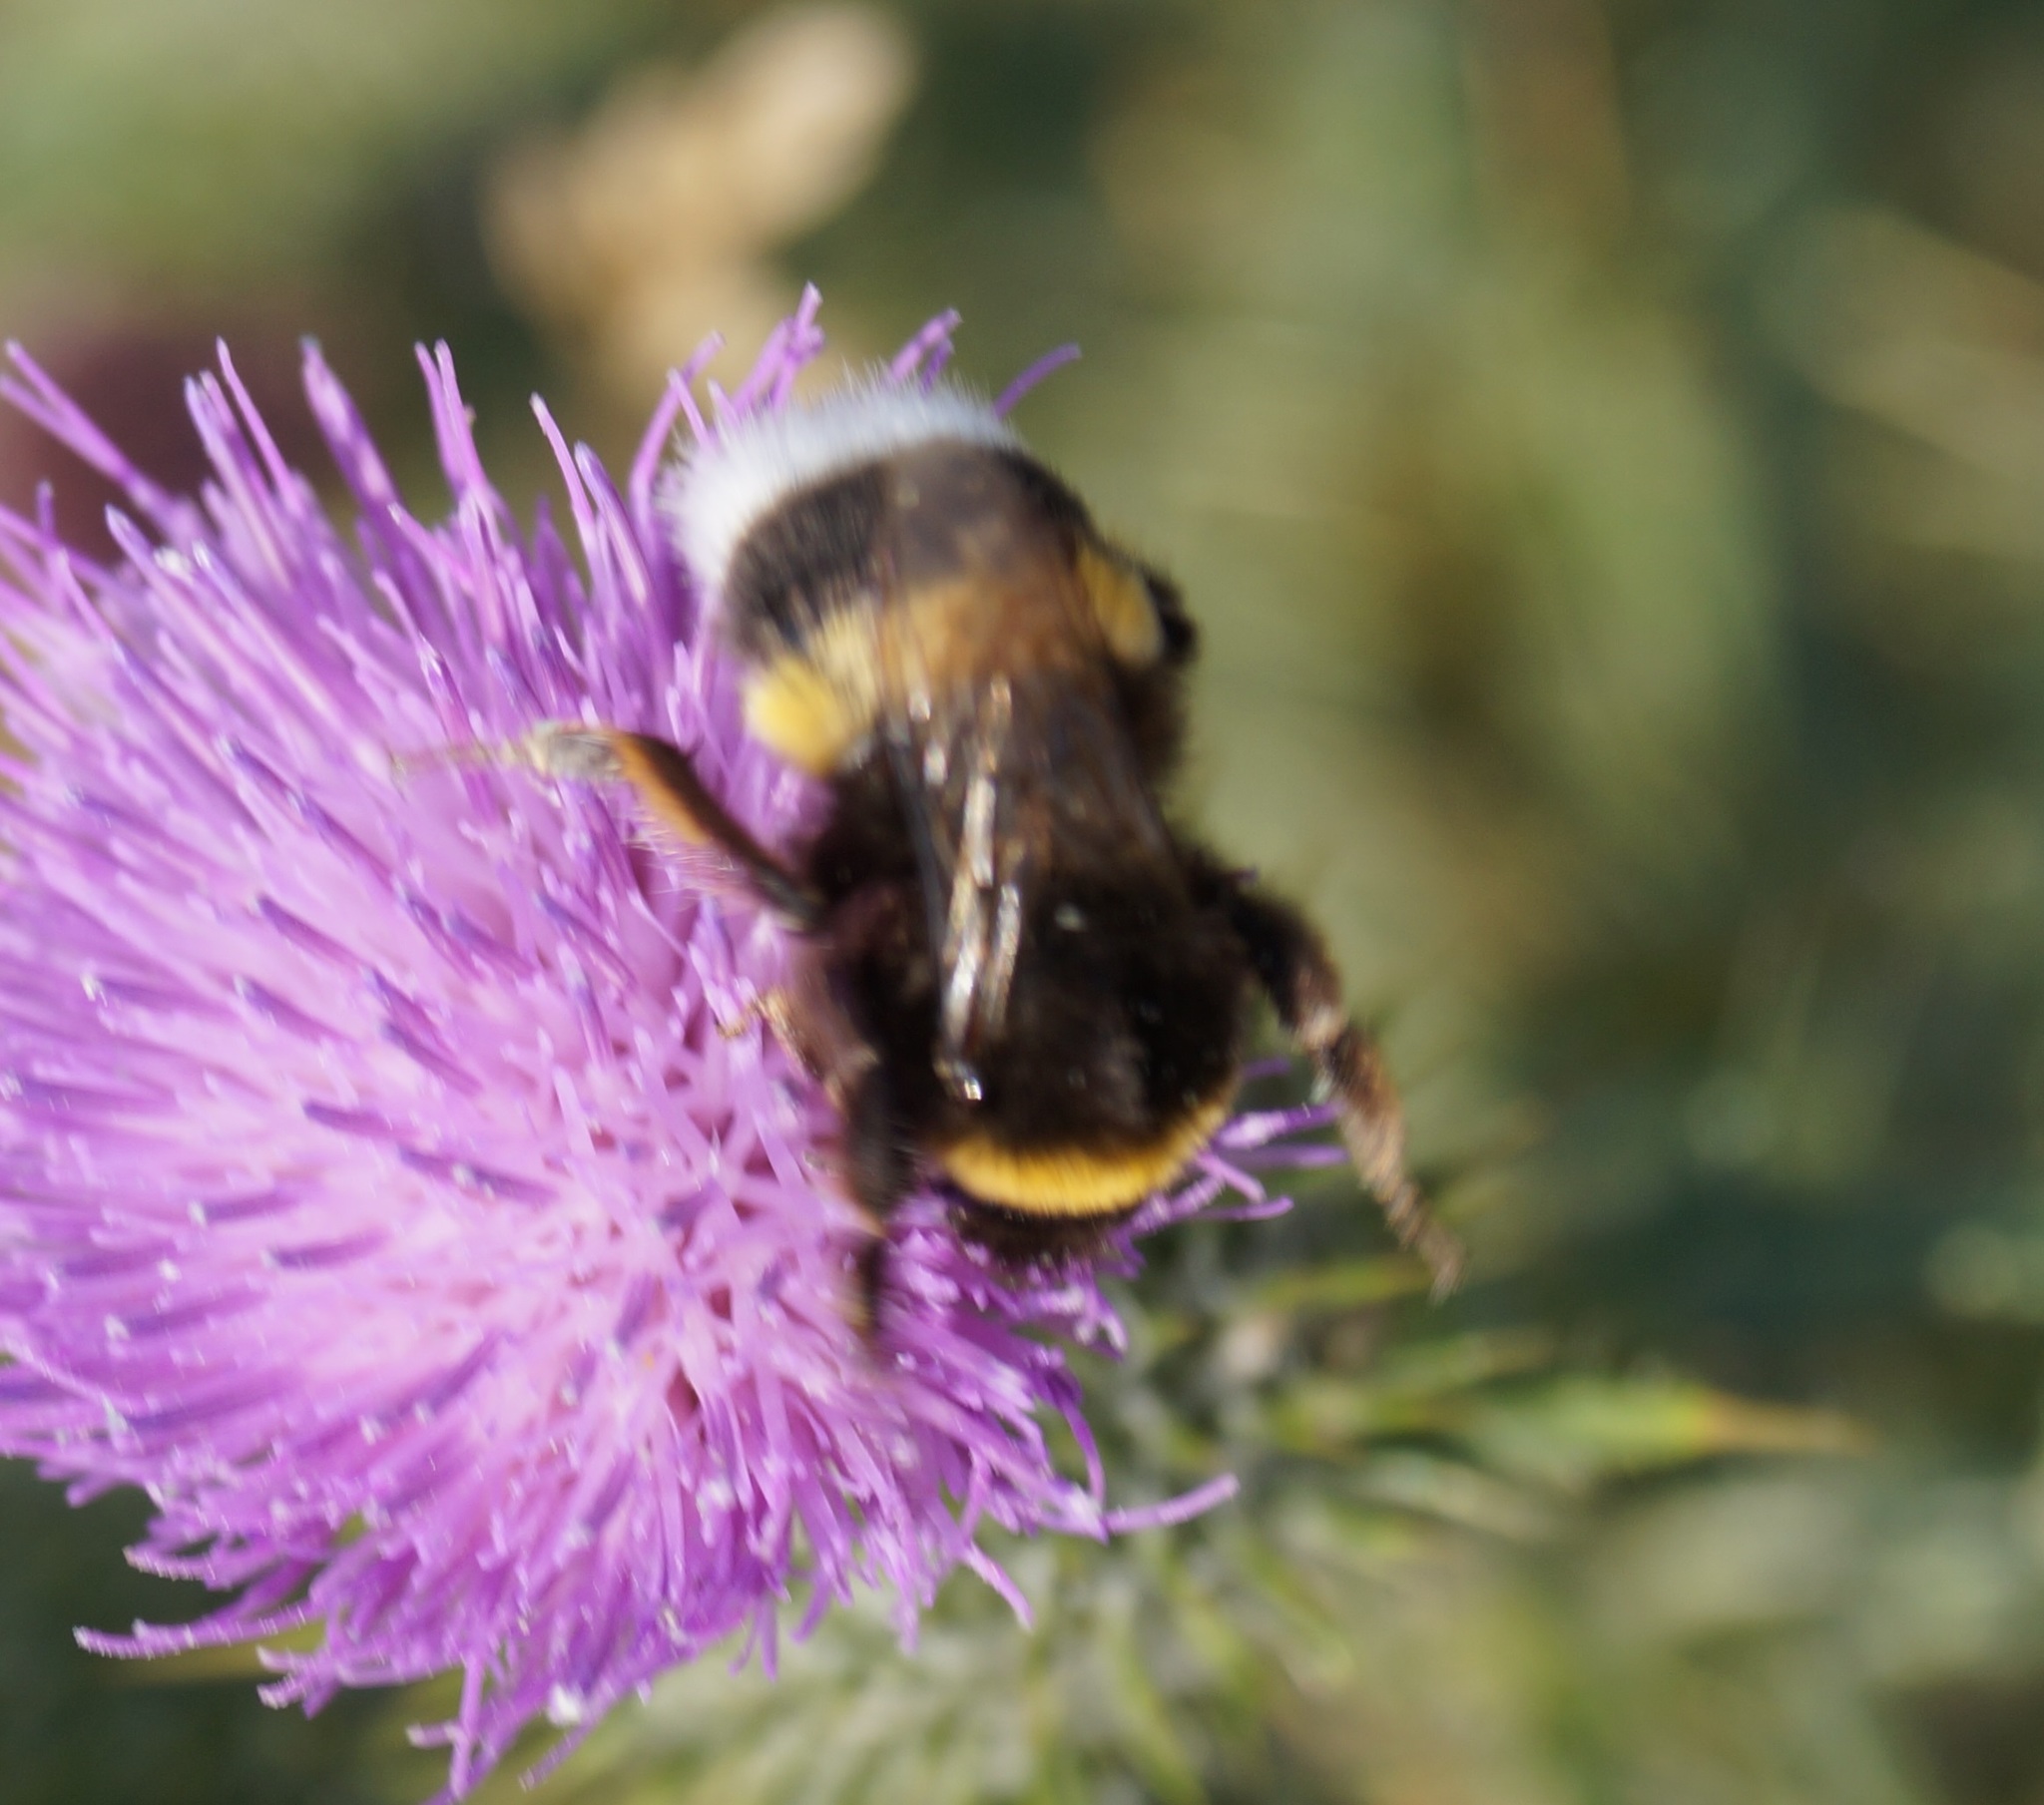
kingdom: Animalia
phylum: Arthropoda
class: Insecta
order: Hymenoptera
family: Apidae
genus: Bombus
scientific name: Bombus
